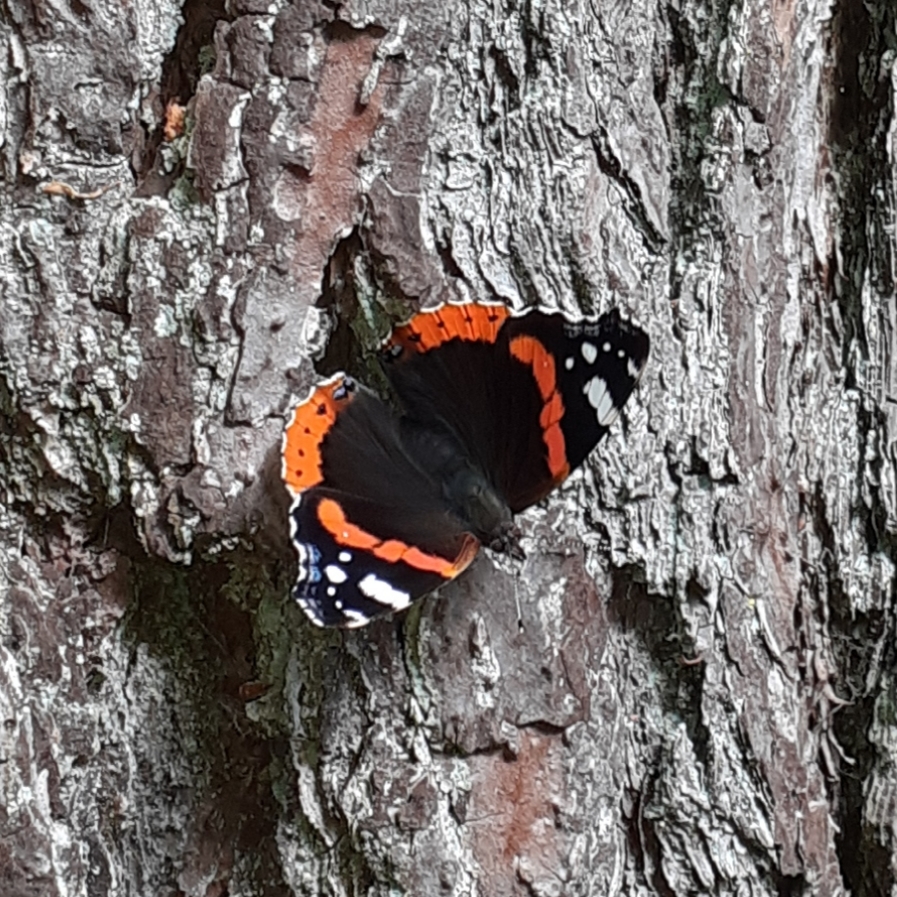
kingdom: Animalia
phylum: Arthropoda
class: Insecta
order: Lepidoptera
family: Nymphalidae
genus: Vanessa
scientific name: Vanessa atalanta
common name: Red admiral
